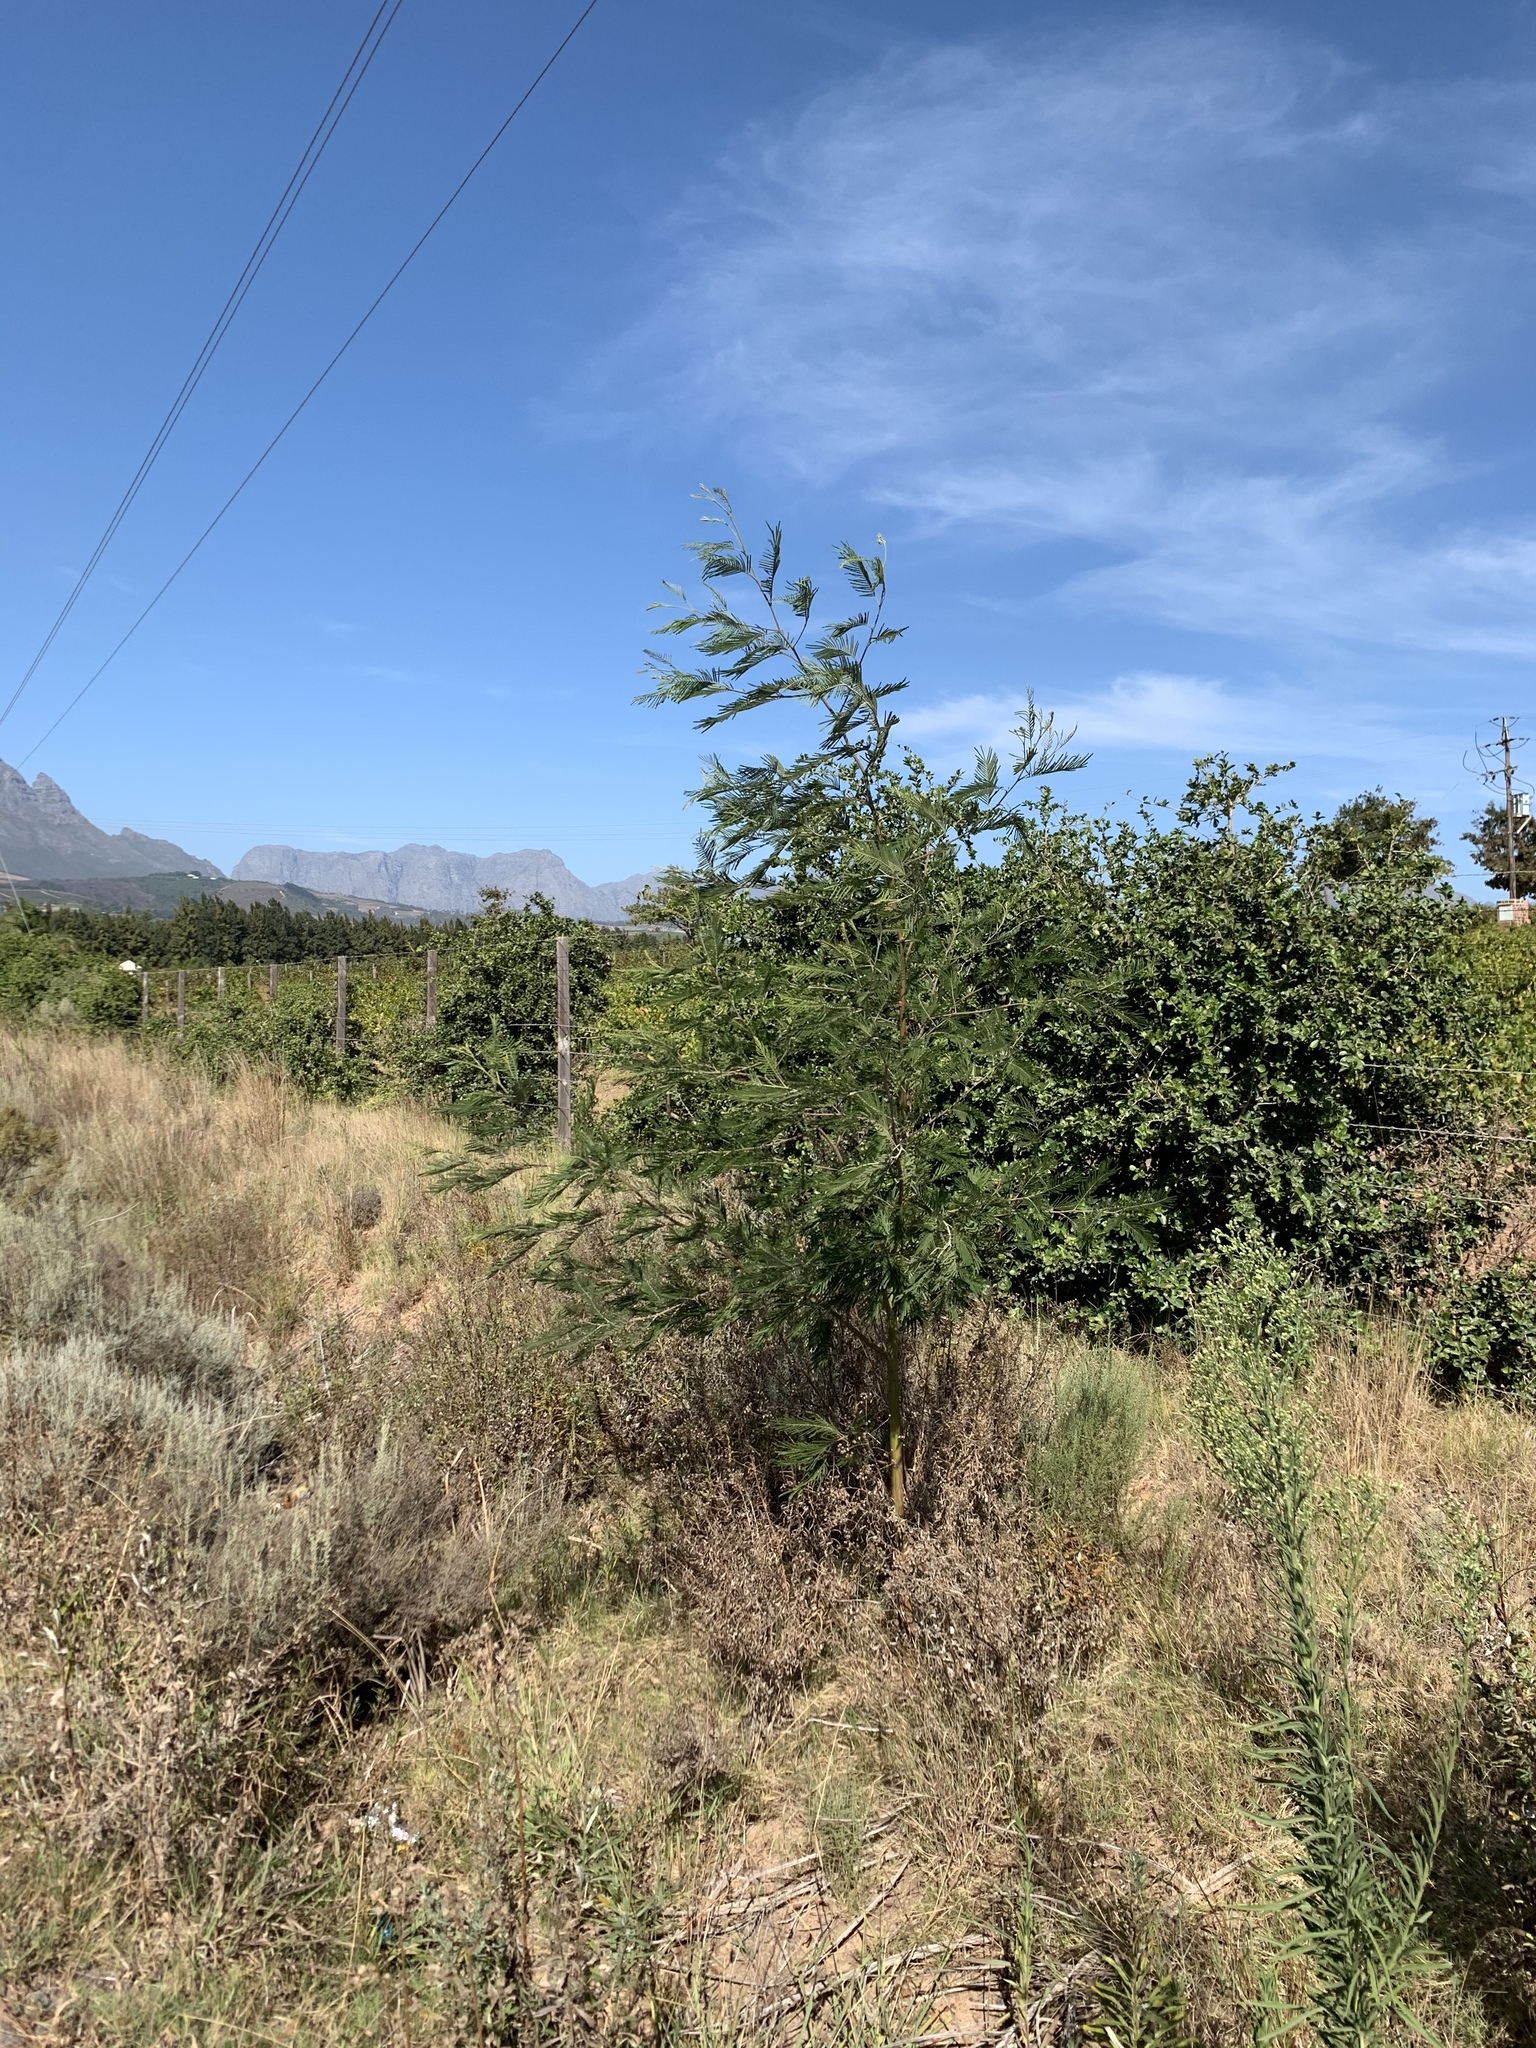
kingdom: Plantae
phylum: Tracheophyta
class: Magnoliopsida
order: Fabales
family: Fabaceae
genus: Acacia
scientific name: Acacia mearnsii
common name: Black wattle
